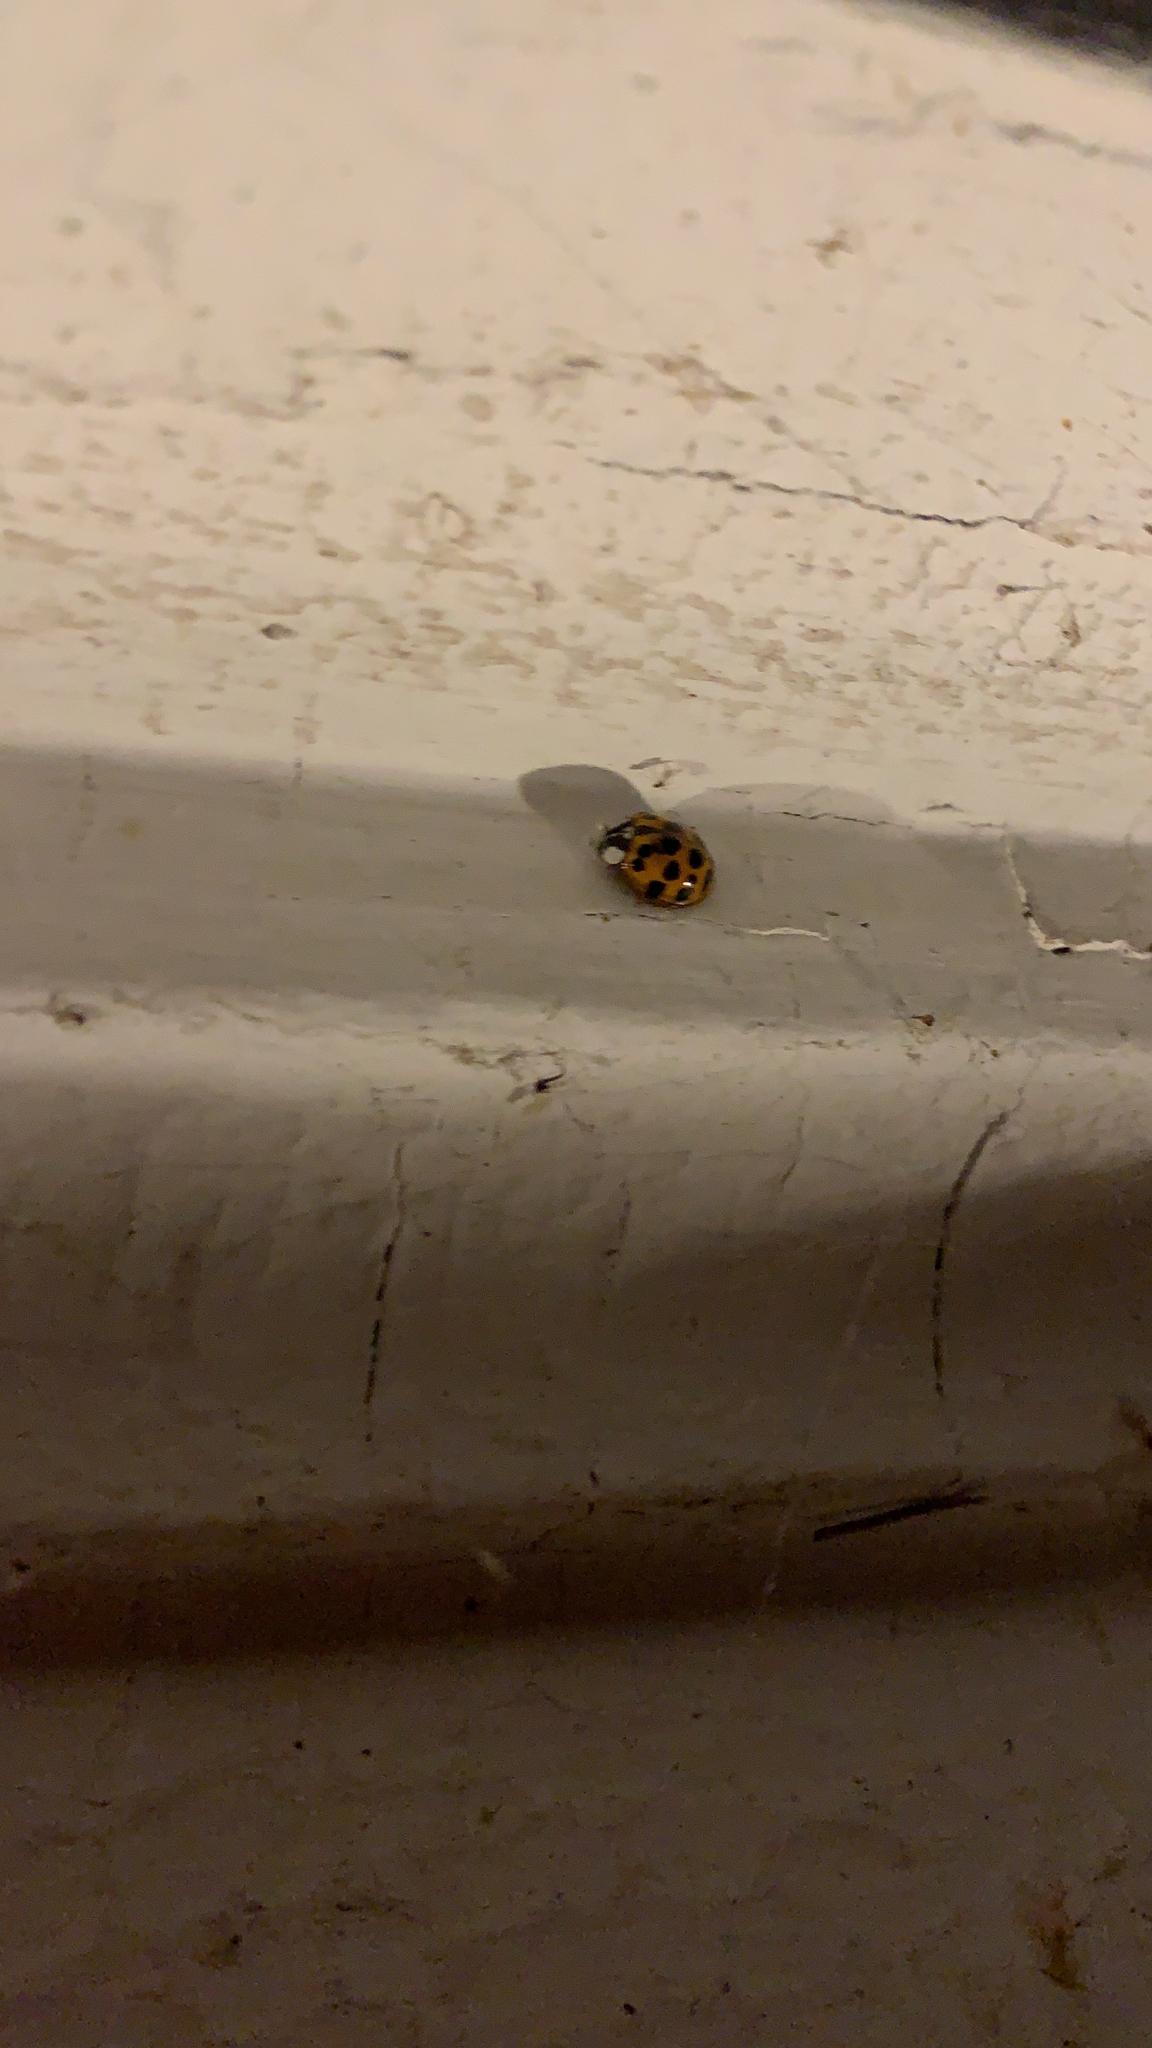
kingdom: Animalia
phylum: Arthropoda
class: Insecta
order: Coleoptera
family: Coccinellidae
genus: Harmonia
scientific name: Harmonia axyridis
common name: Harlequin ladybird
